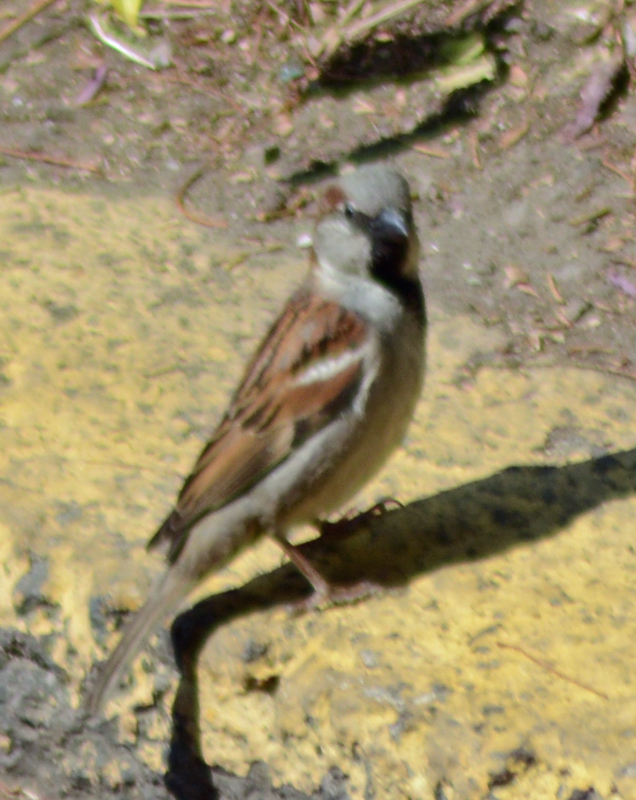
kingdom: Animalia
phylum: Chordata
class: Aves
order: Passeriformes
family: Passeridae
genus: Passer
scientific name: Passer domesticus
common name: House sparrow
